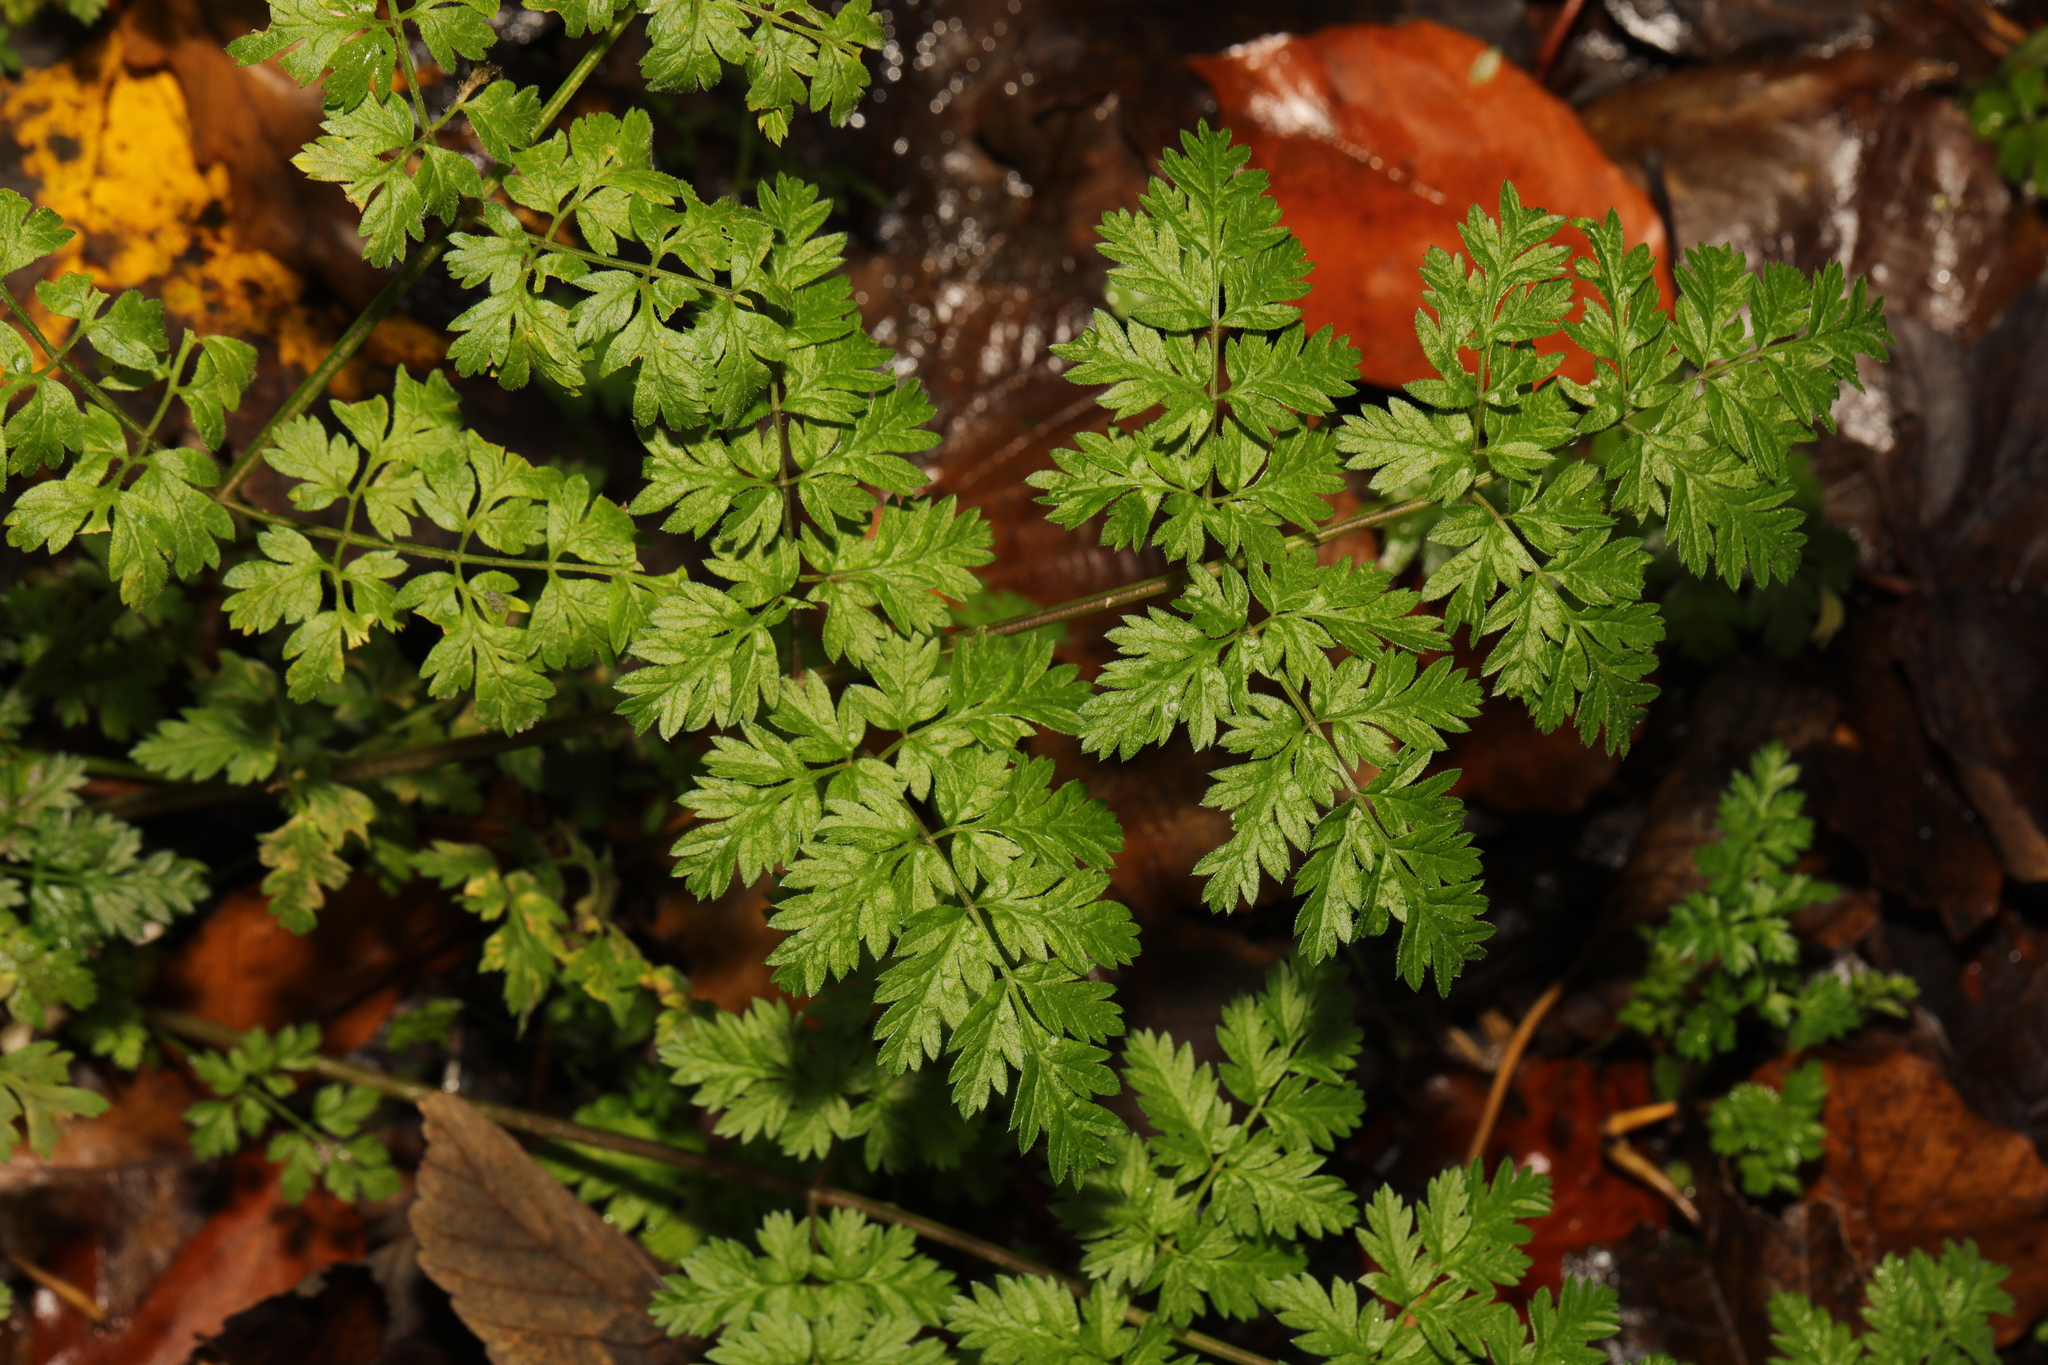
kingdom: Plantae
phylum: Tracheophyta
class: Magnoliopsida
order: Apiales
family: Apiaceae
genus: Anthriscus
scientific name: Anthriscus sylvestris
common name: Cow parsley
